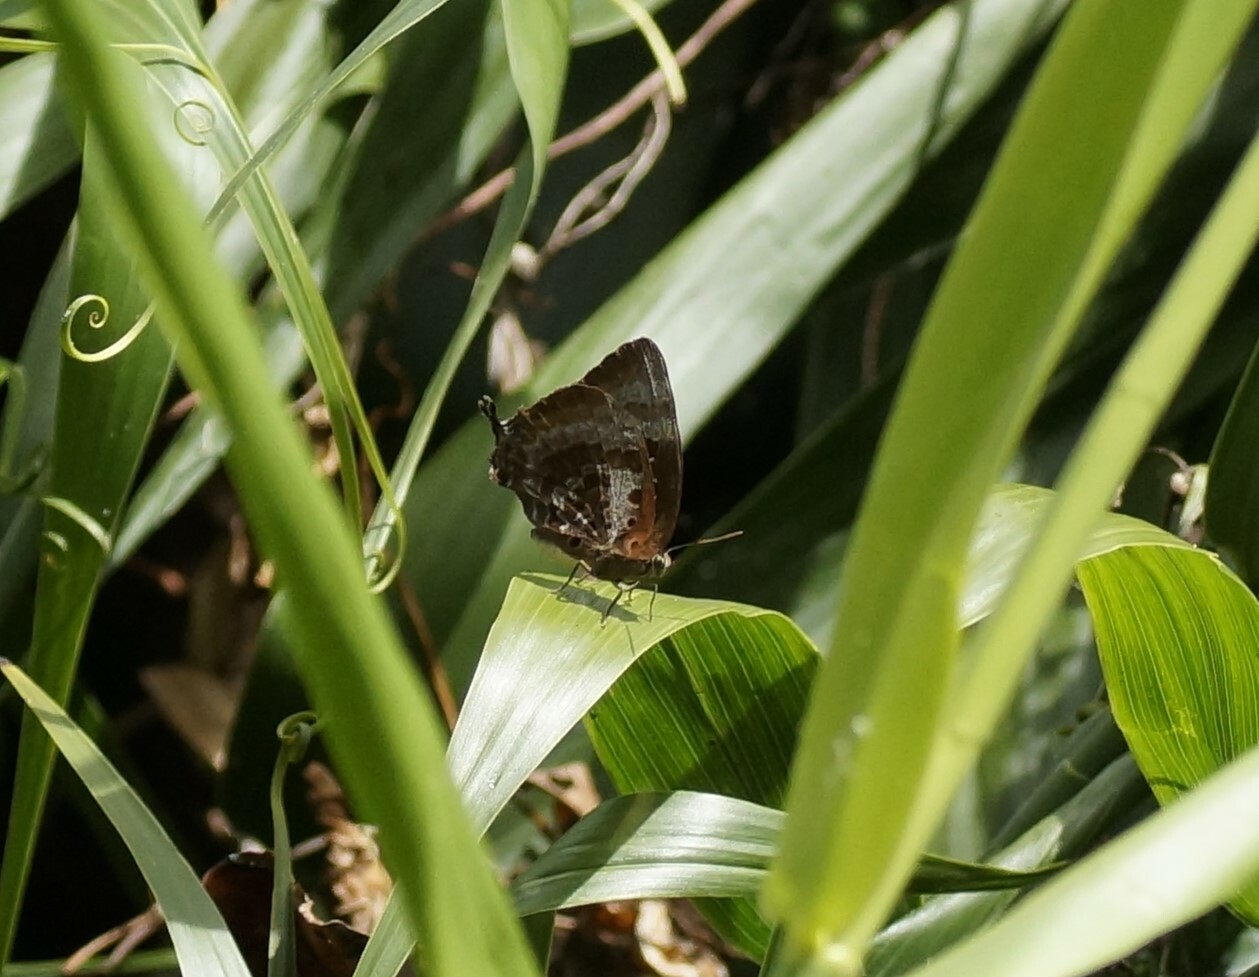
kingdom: Animalia
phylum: Arthropoda
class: Insecta
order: Lepidoptera
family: Lycaenidae
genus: Arhopala
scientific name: Arhopala micale
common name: Shining oak-blue
